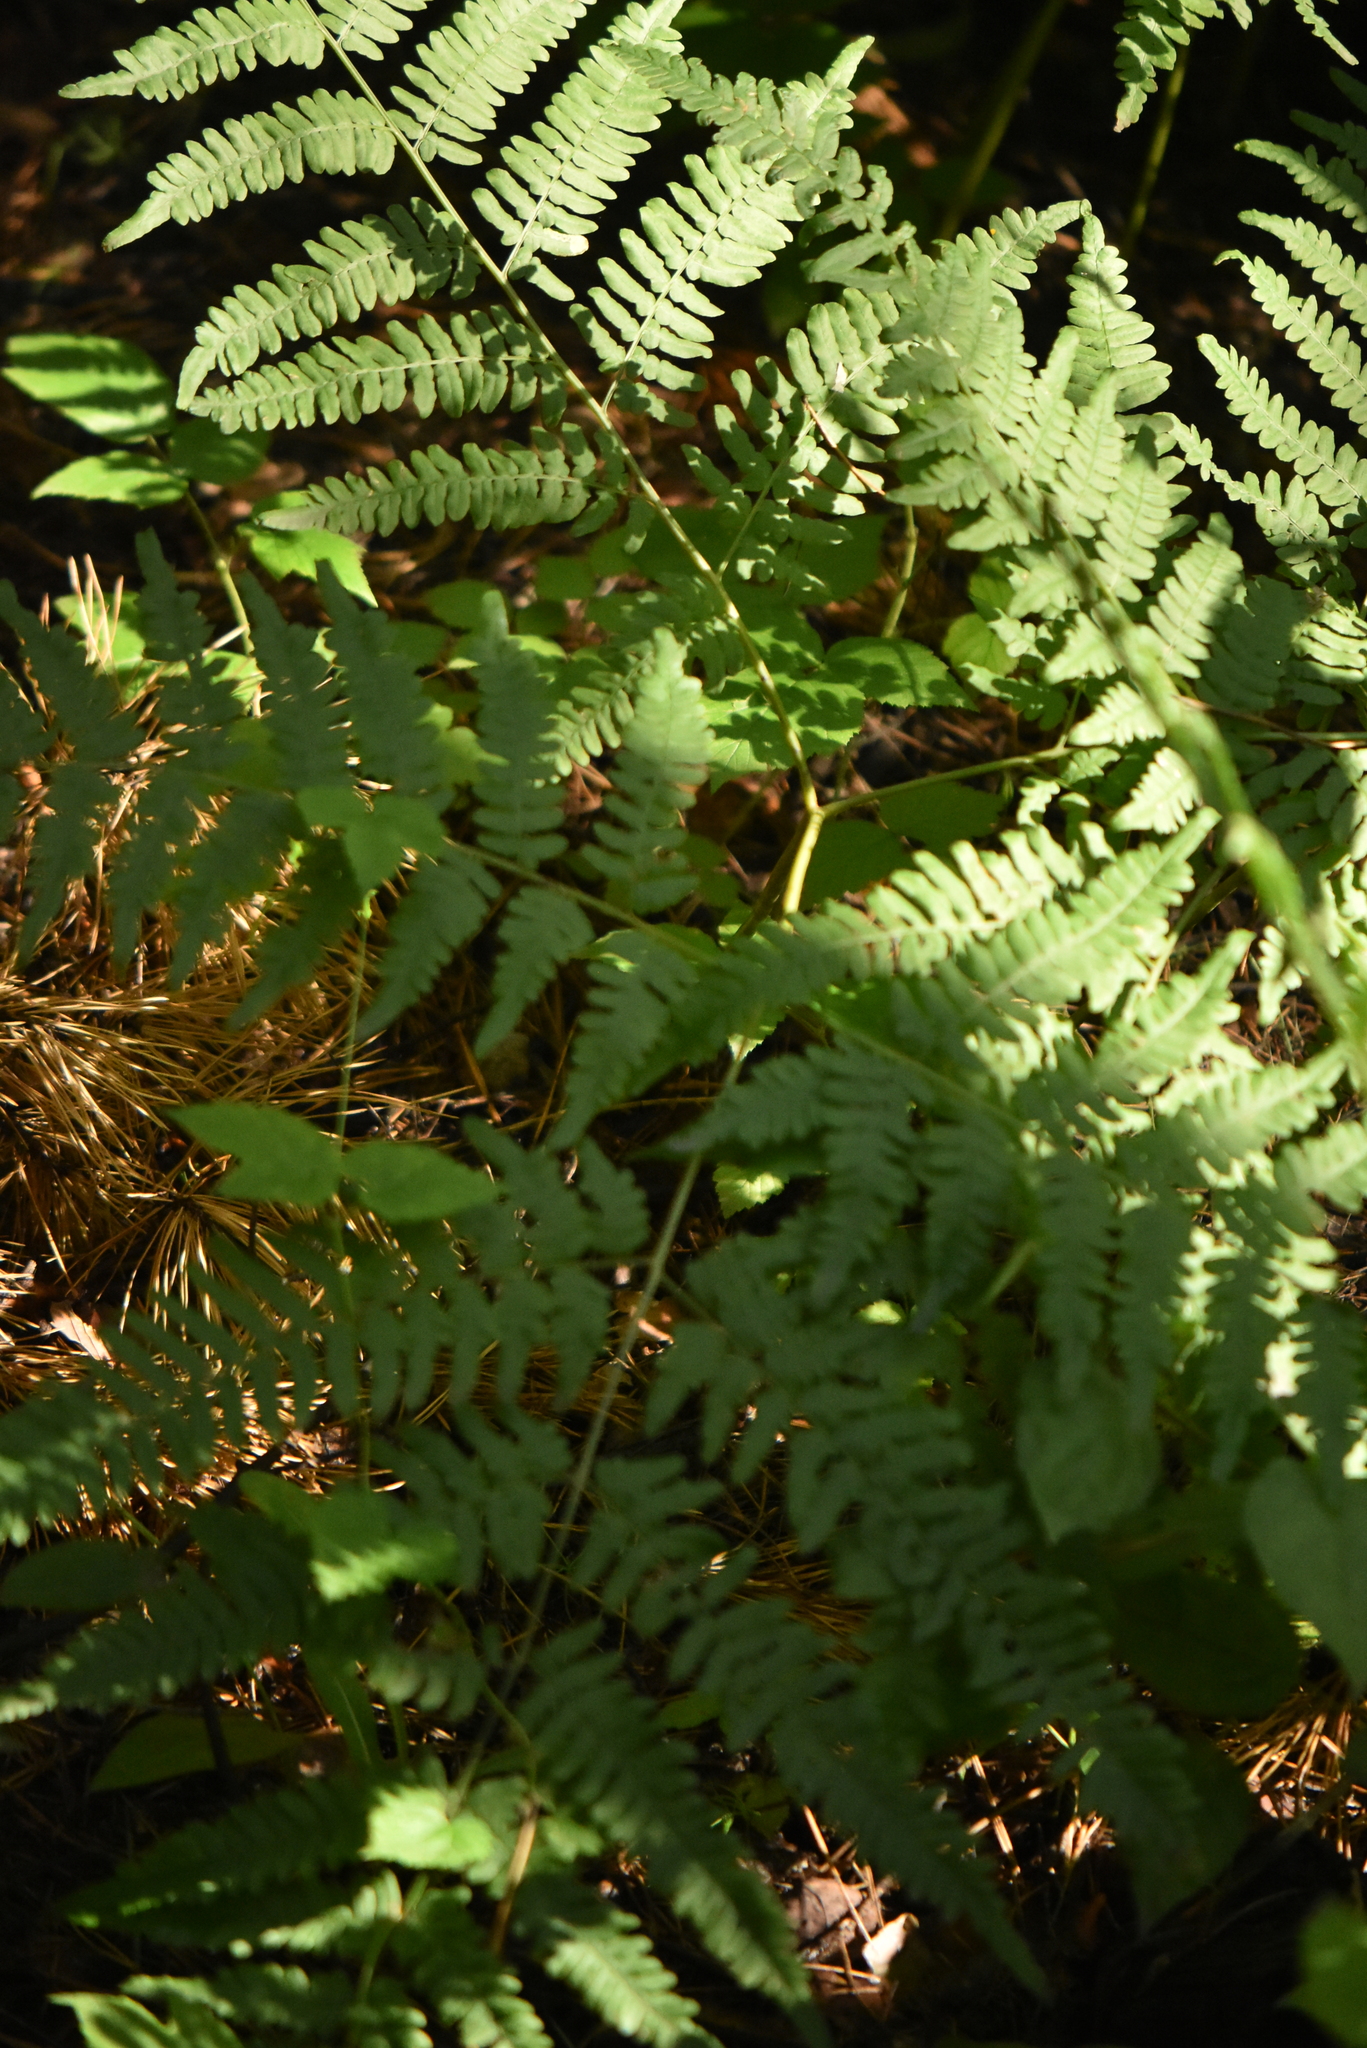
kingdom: Plantae
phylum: Tracheophyta
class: Polypodiopsida
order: Polypodiales
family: Dennstaedtiaceae
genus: Pteridium
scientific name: Pteridium aquilinum
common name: Bracken
